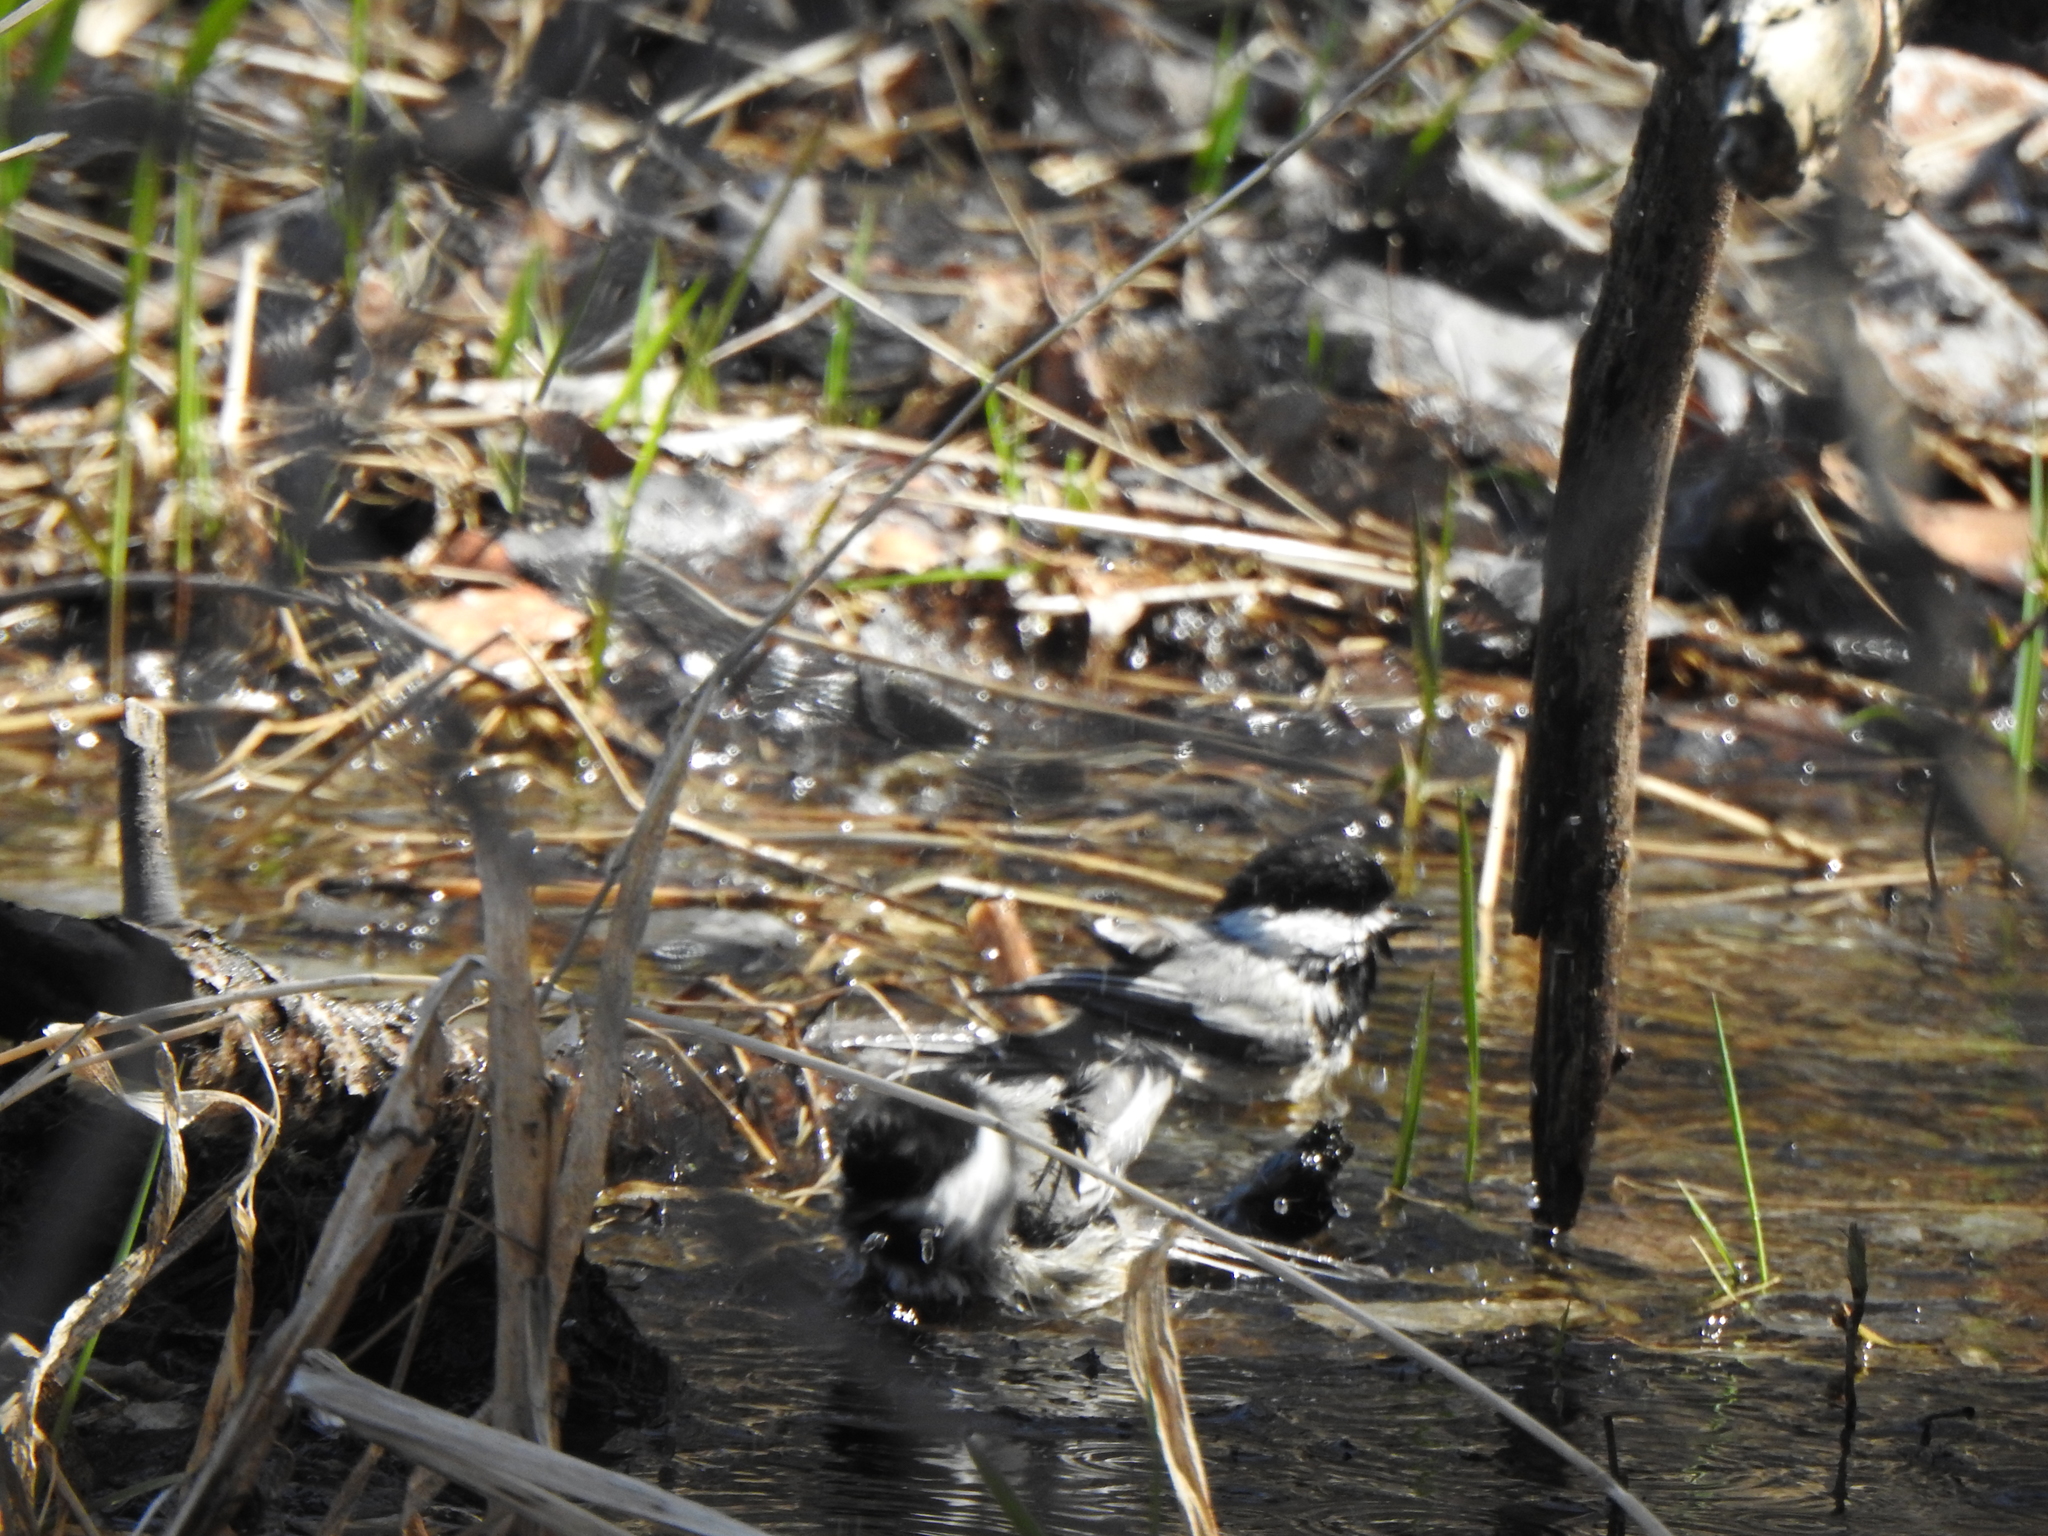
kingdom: Animalia
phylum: Chordata
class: Aves
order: Passeriformes
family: Paridae
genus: Poecile
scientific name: Poecile atricapillus
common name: Black-capped chickadee
